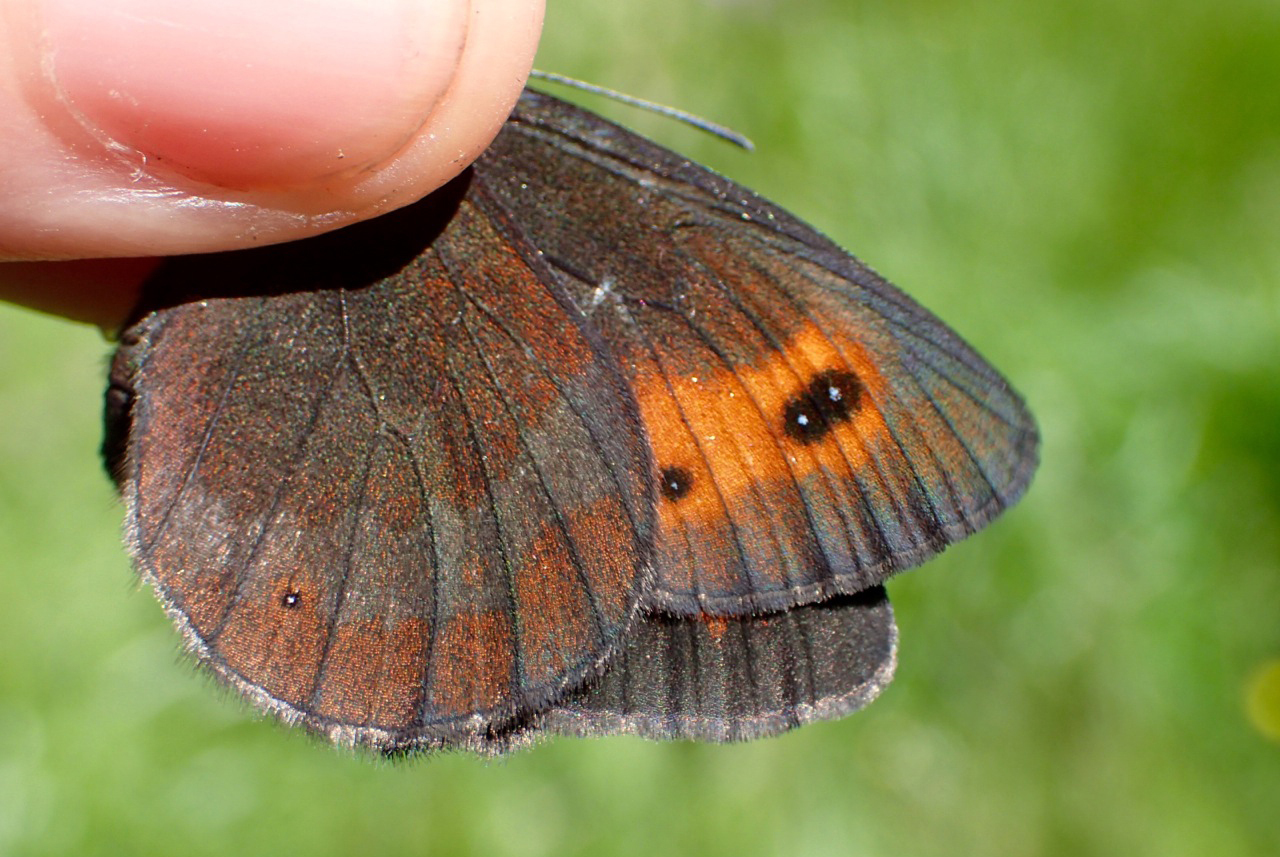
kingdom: Animalia
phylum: Arthropoda
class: Insecta
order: Lepidoptera
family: Nymphalidae
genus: Erebia
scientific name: Erebia aethiops
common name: Scotch argus
